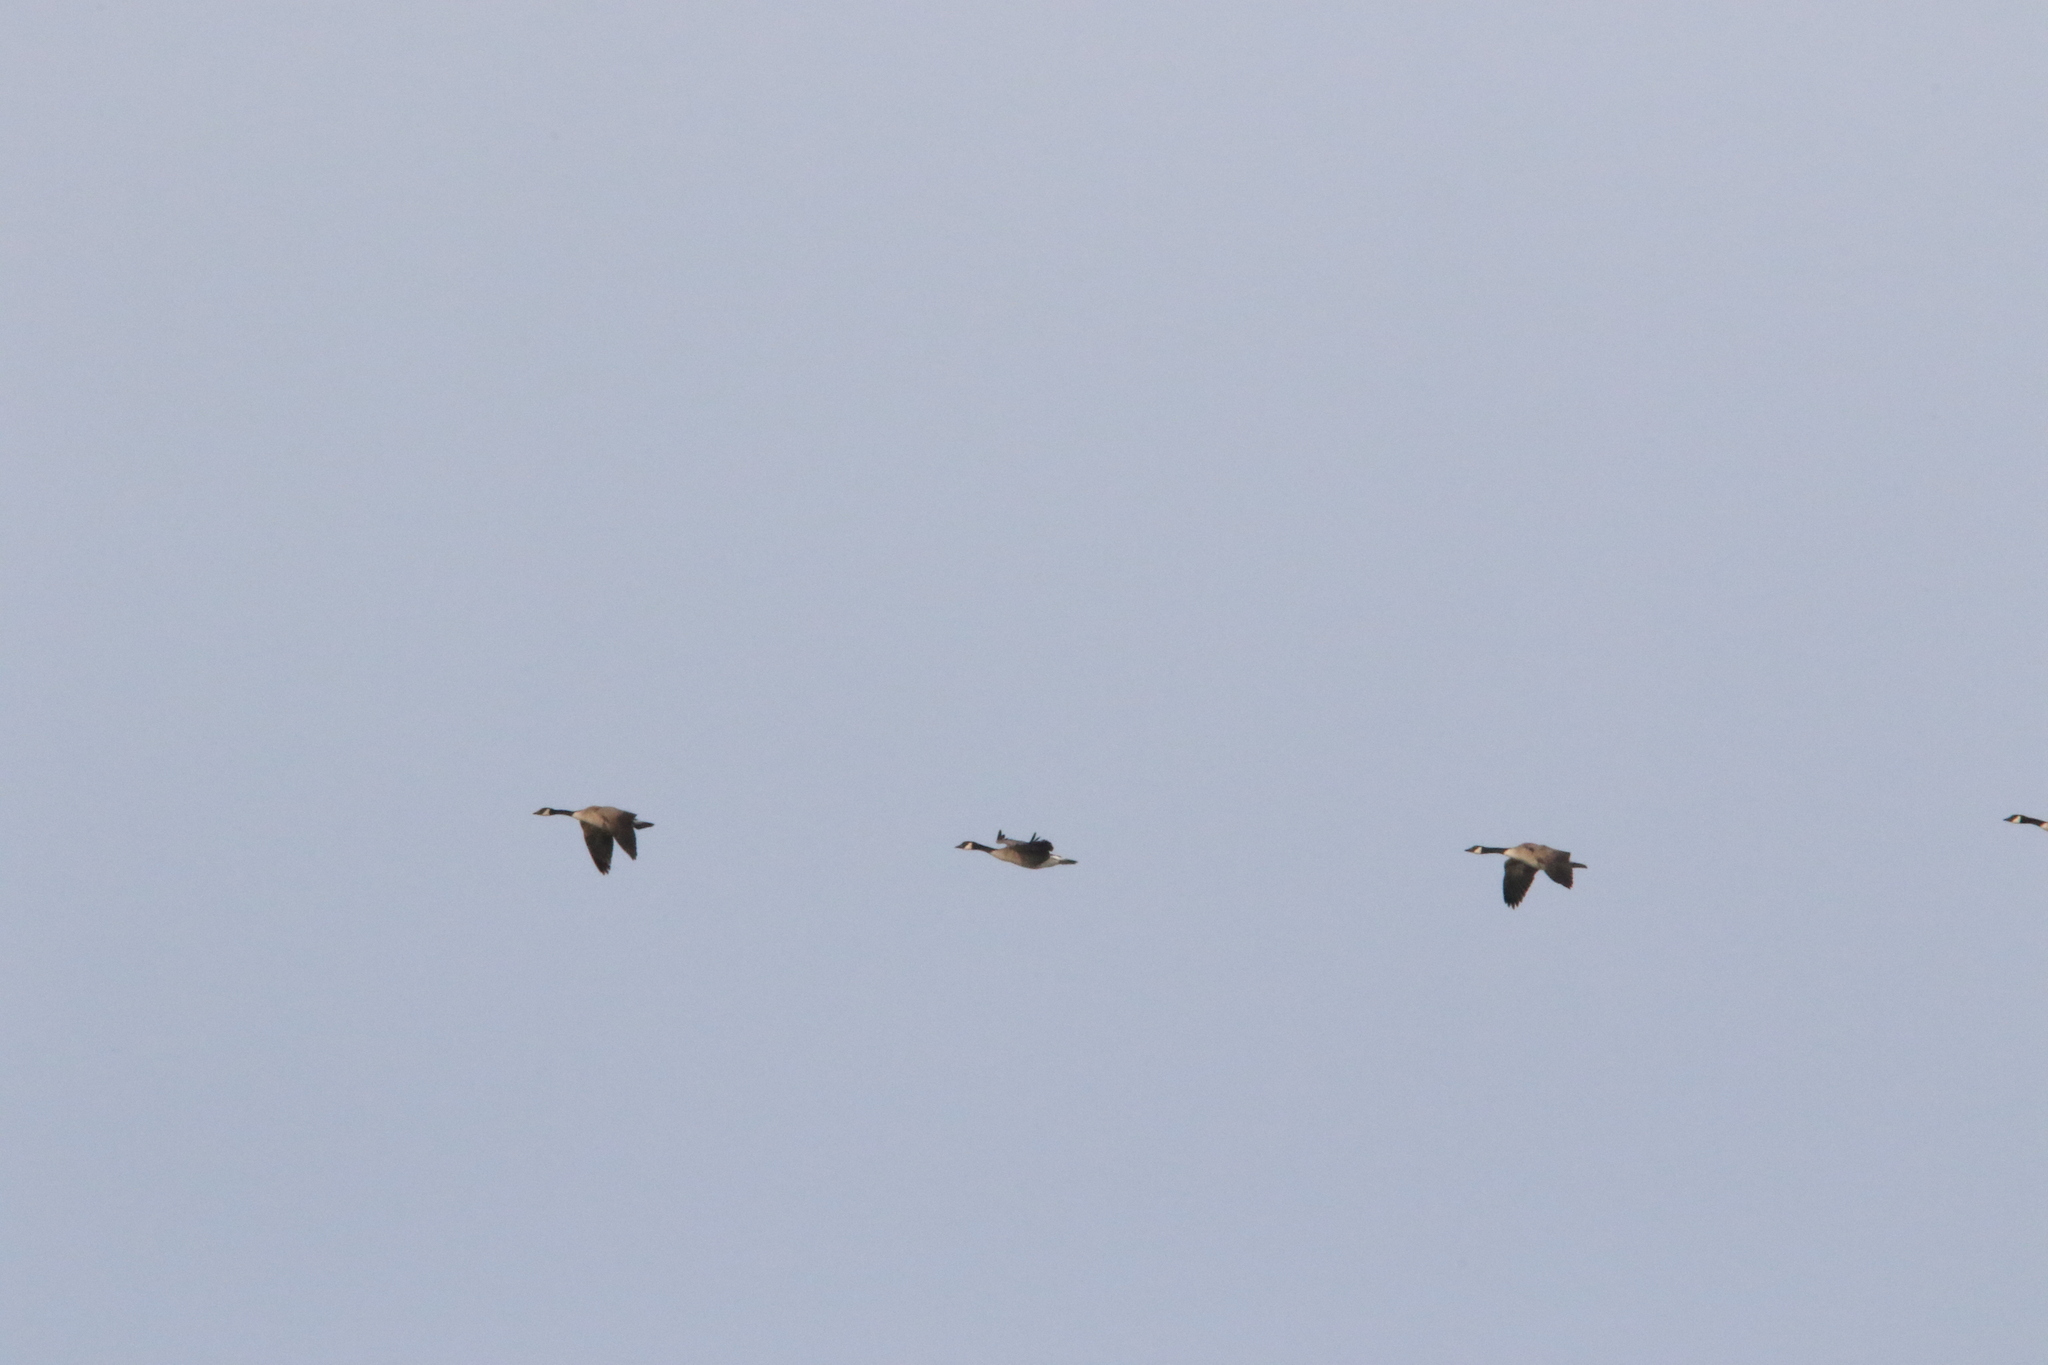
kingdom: Animalia
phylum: Chordata
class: Aves
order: Anseriformes
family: Anatidae
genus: Branta
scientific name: Branta canadensis
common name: Canada goose
